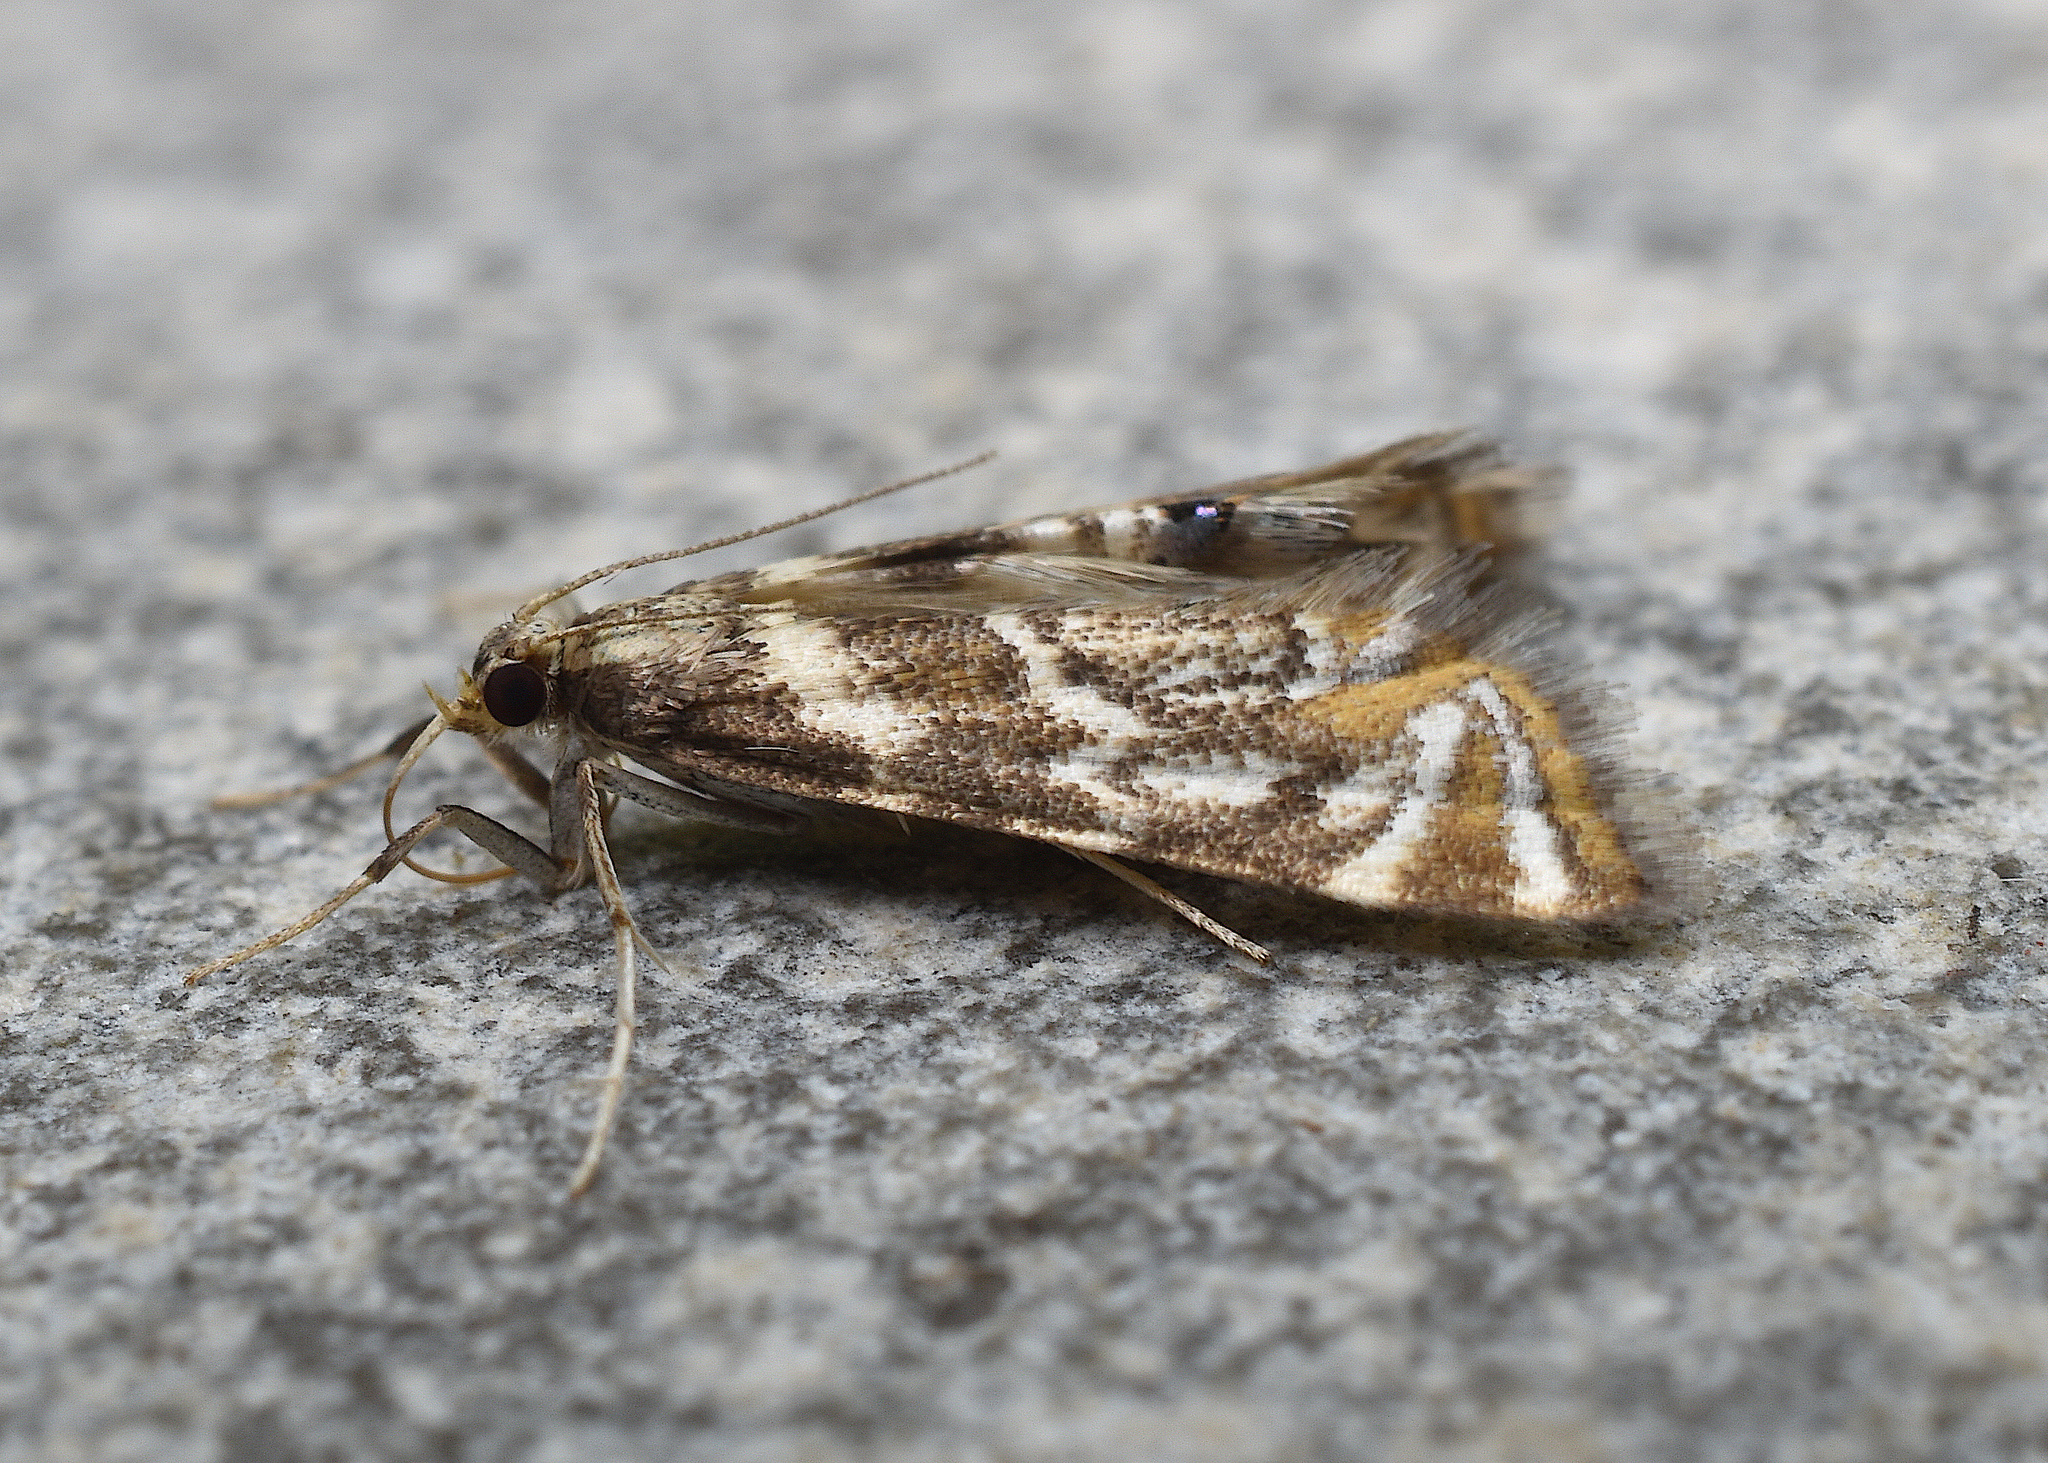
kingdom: Animalia
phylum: Arthropoda
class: Insecta
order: Lepidoptera
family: Crambidae
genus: Petrophila
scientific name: Petrophila canadensis
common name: Canadian petrophila
